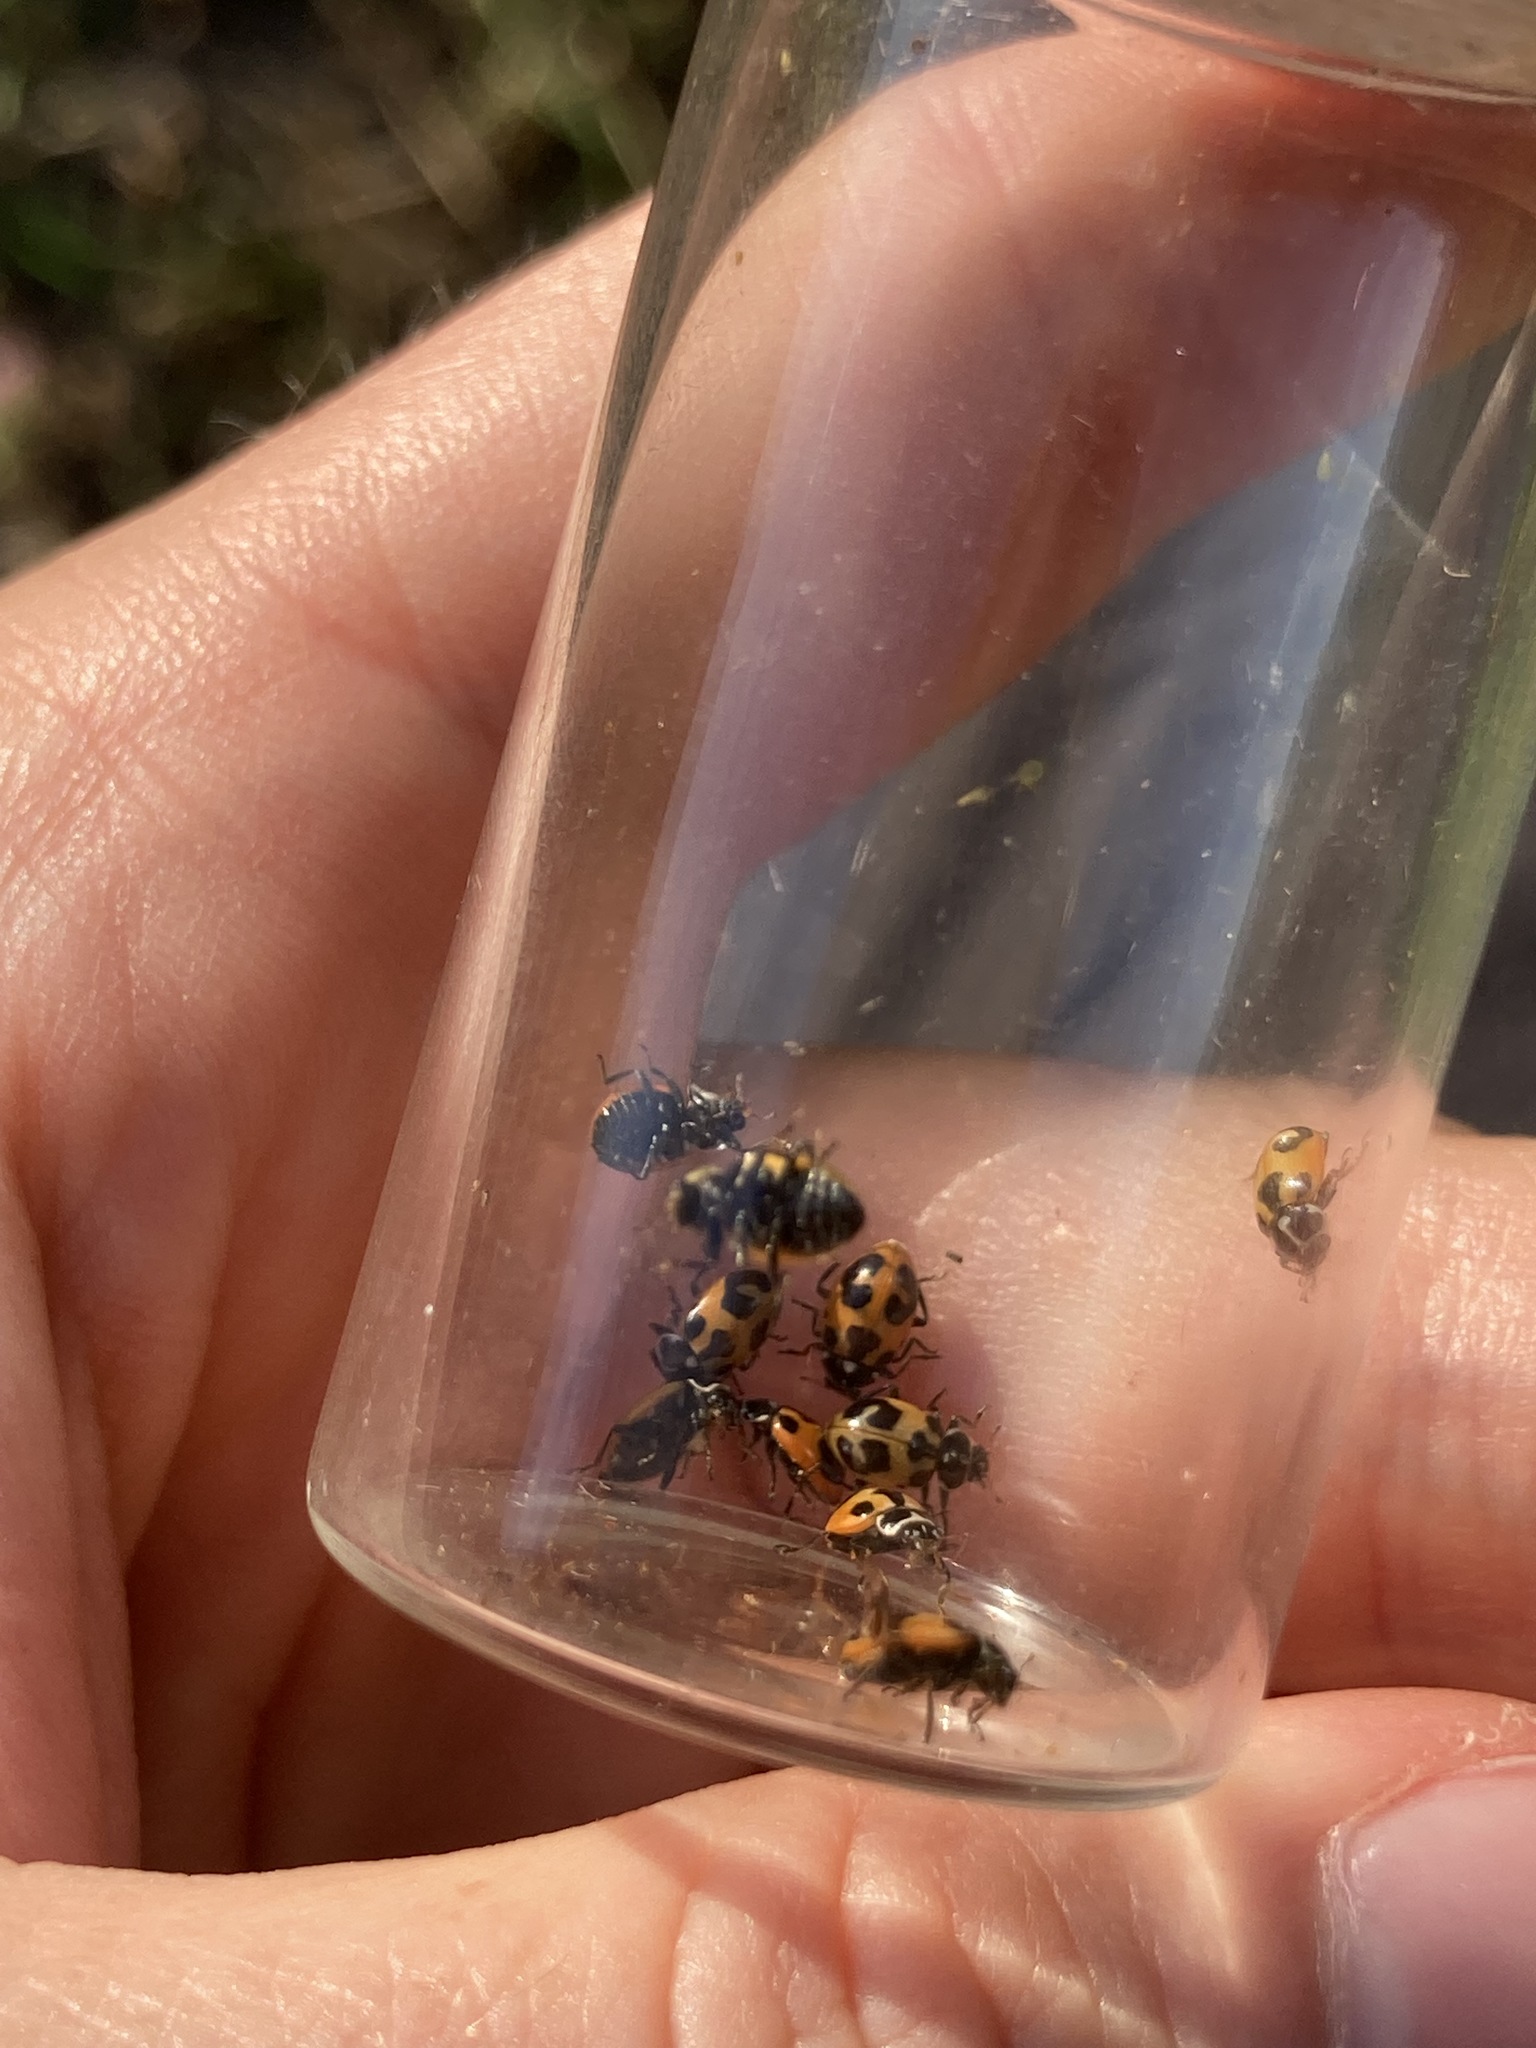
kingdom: Animalia
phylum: Arthropoda
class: Insecta
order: Coleoptera
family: Coccinellidae
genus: Hippodamia
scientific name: Hippodamia parenthesis
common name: Parenthesis lady beetle
